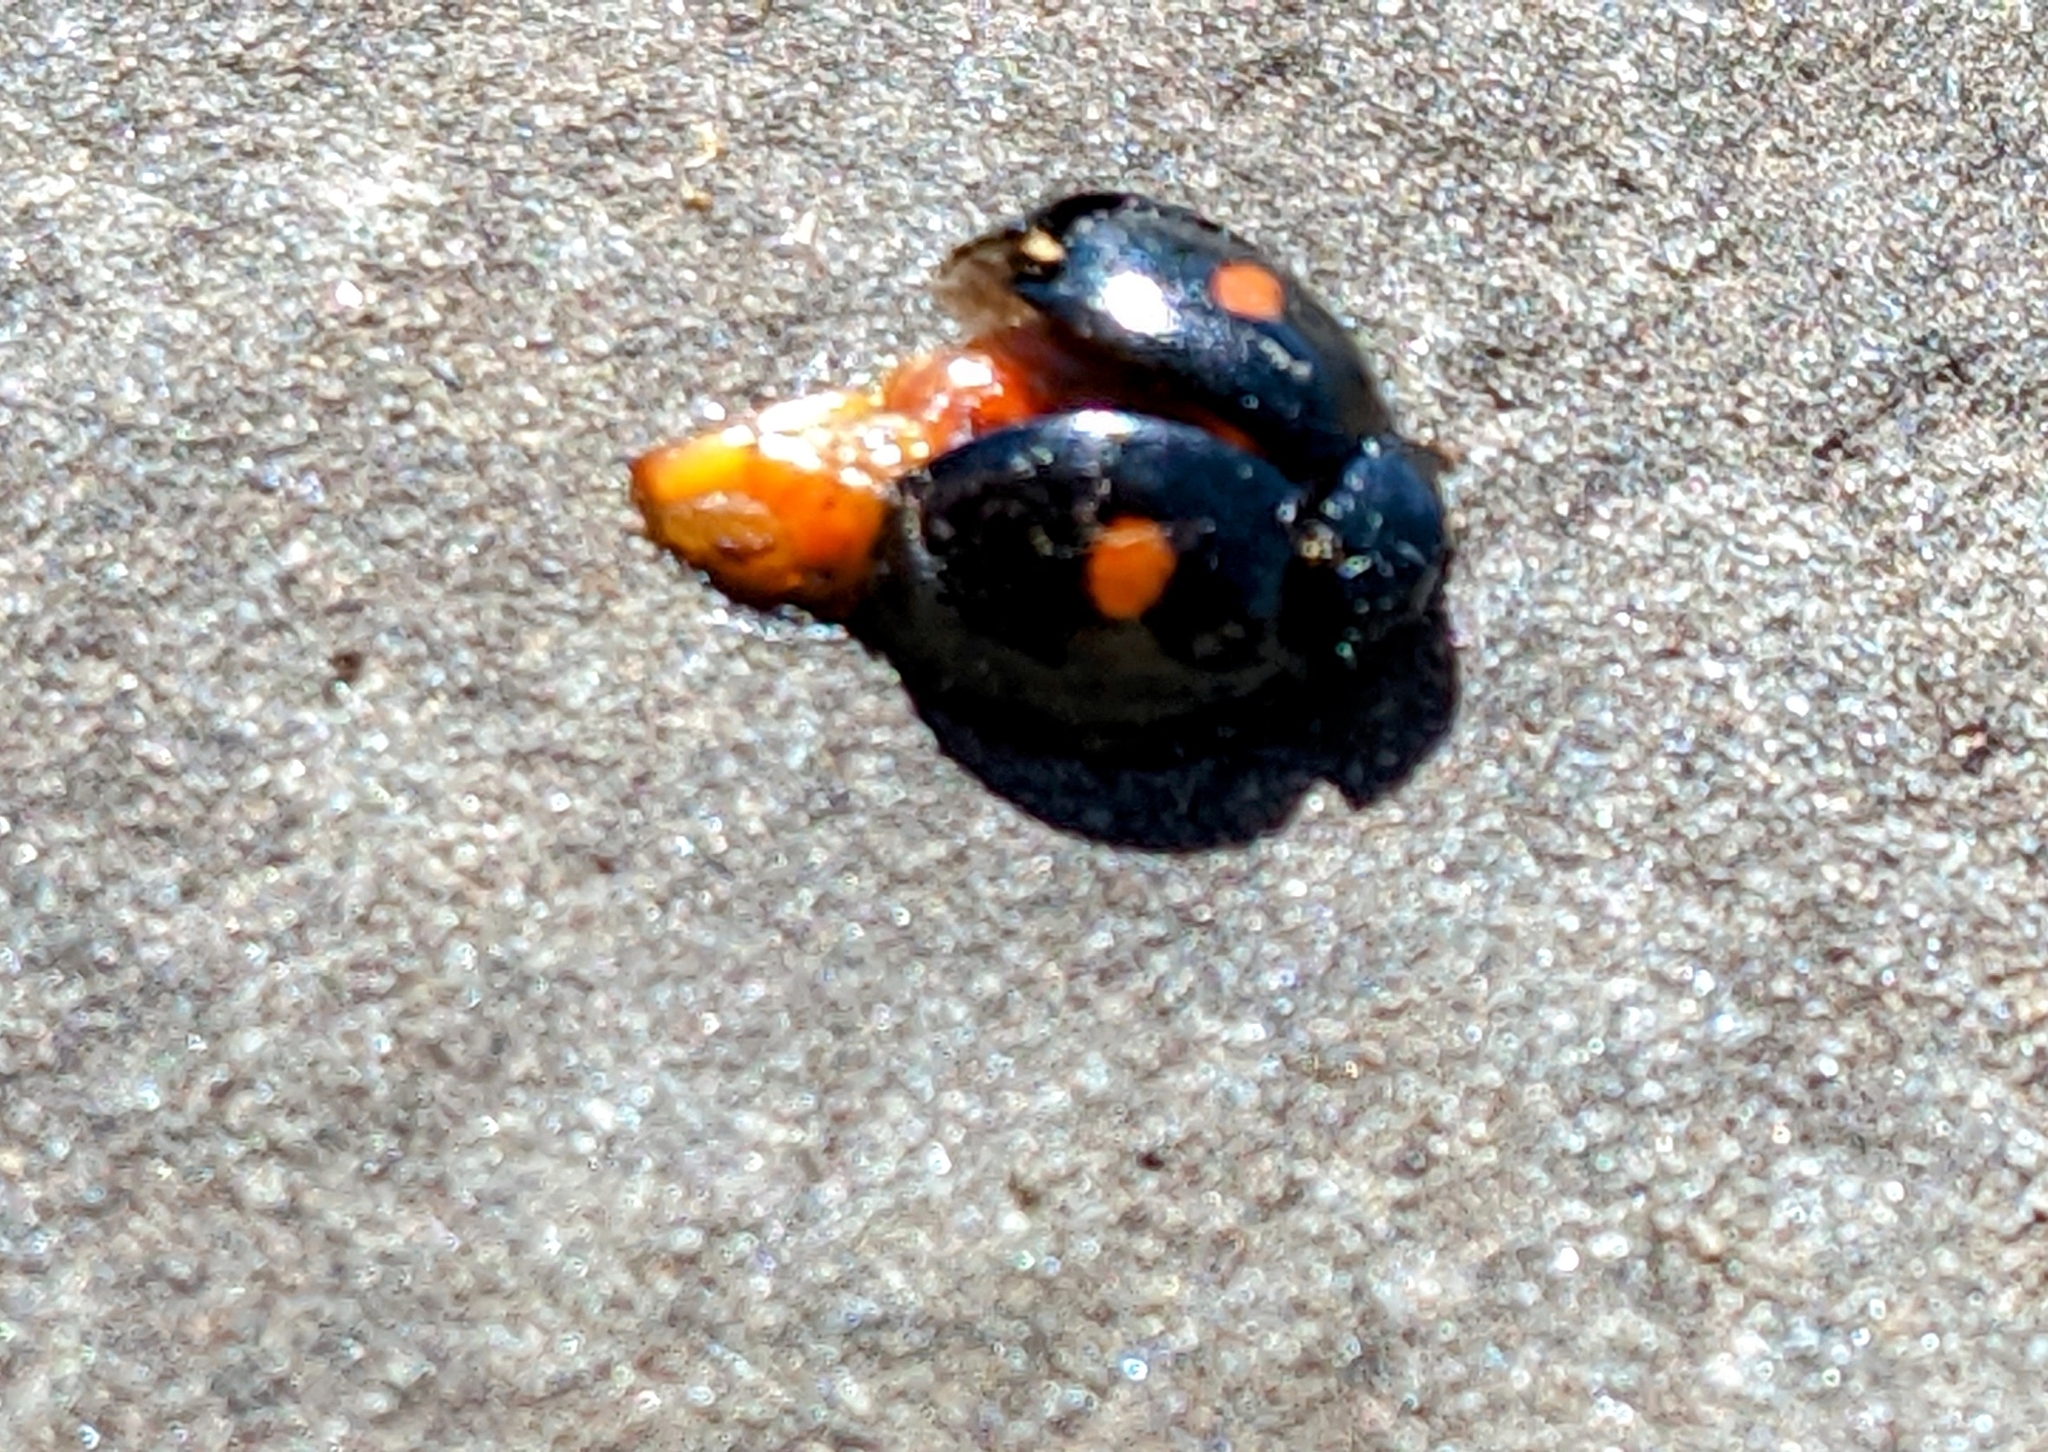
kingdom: Animalia
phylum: Arthropoda
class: Insecta
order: Coleoptera
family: Coccinellidae
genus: Chilocorus
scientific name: Chilocorus stigma
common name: Twicestabbed lady beetle
